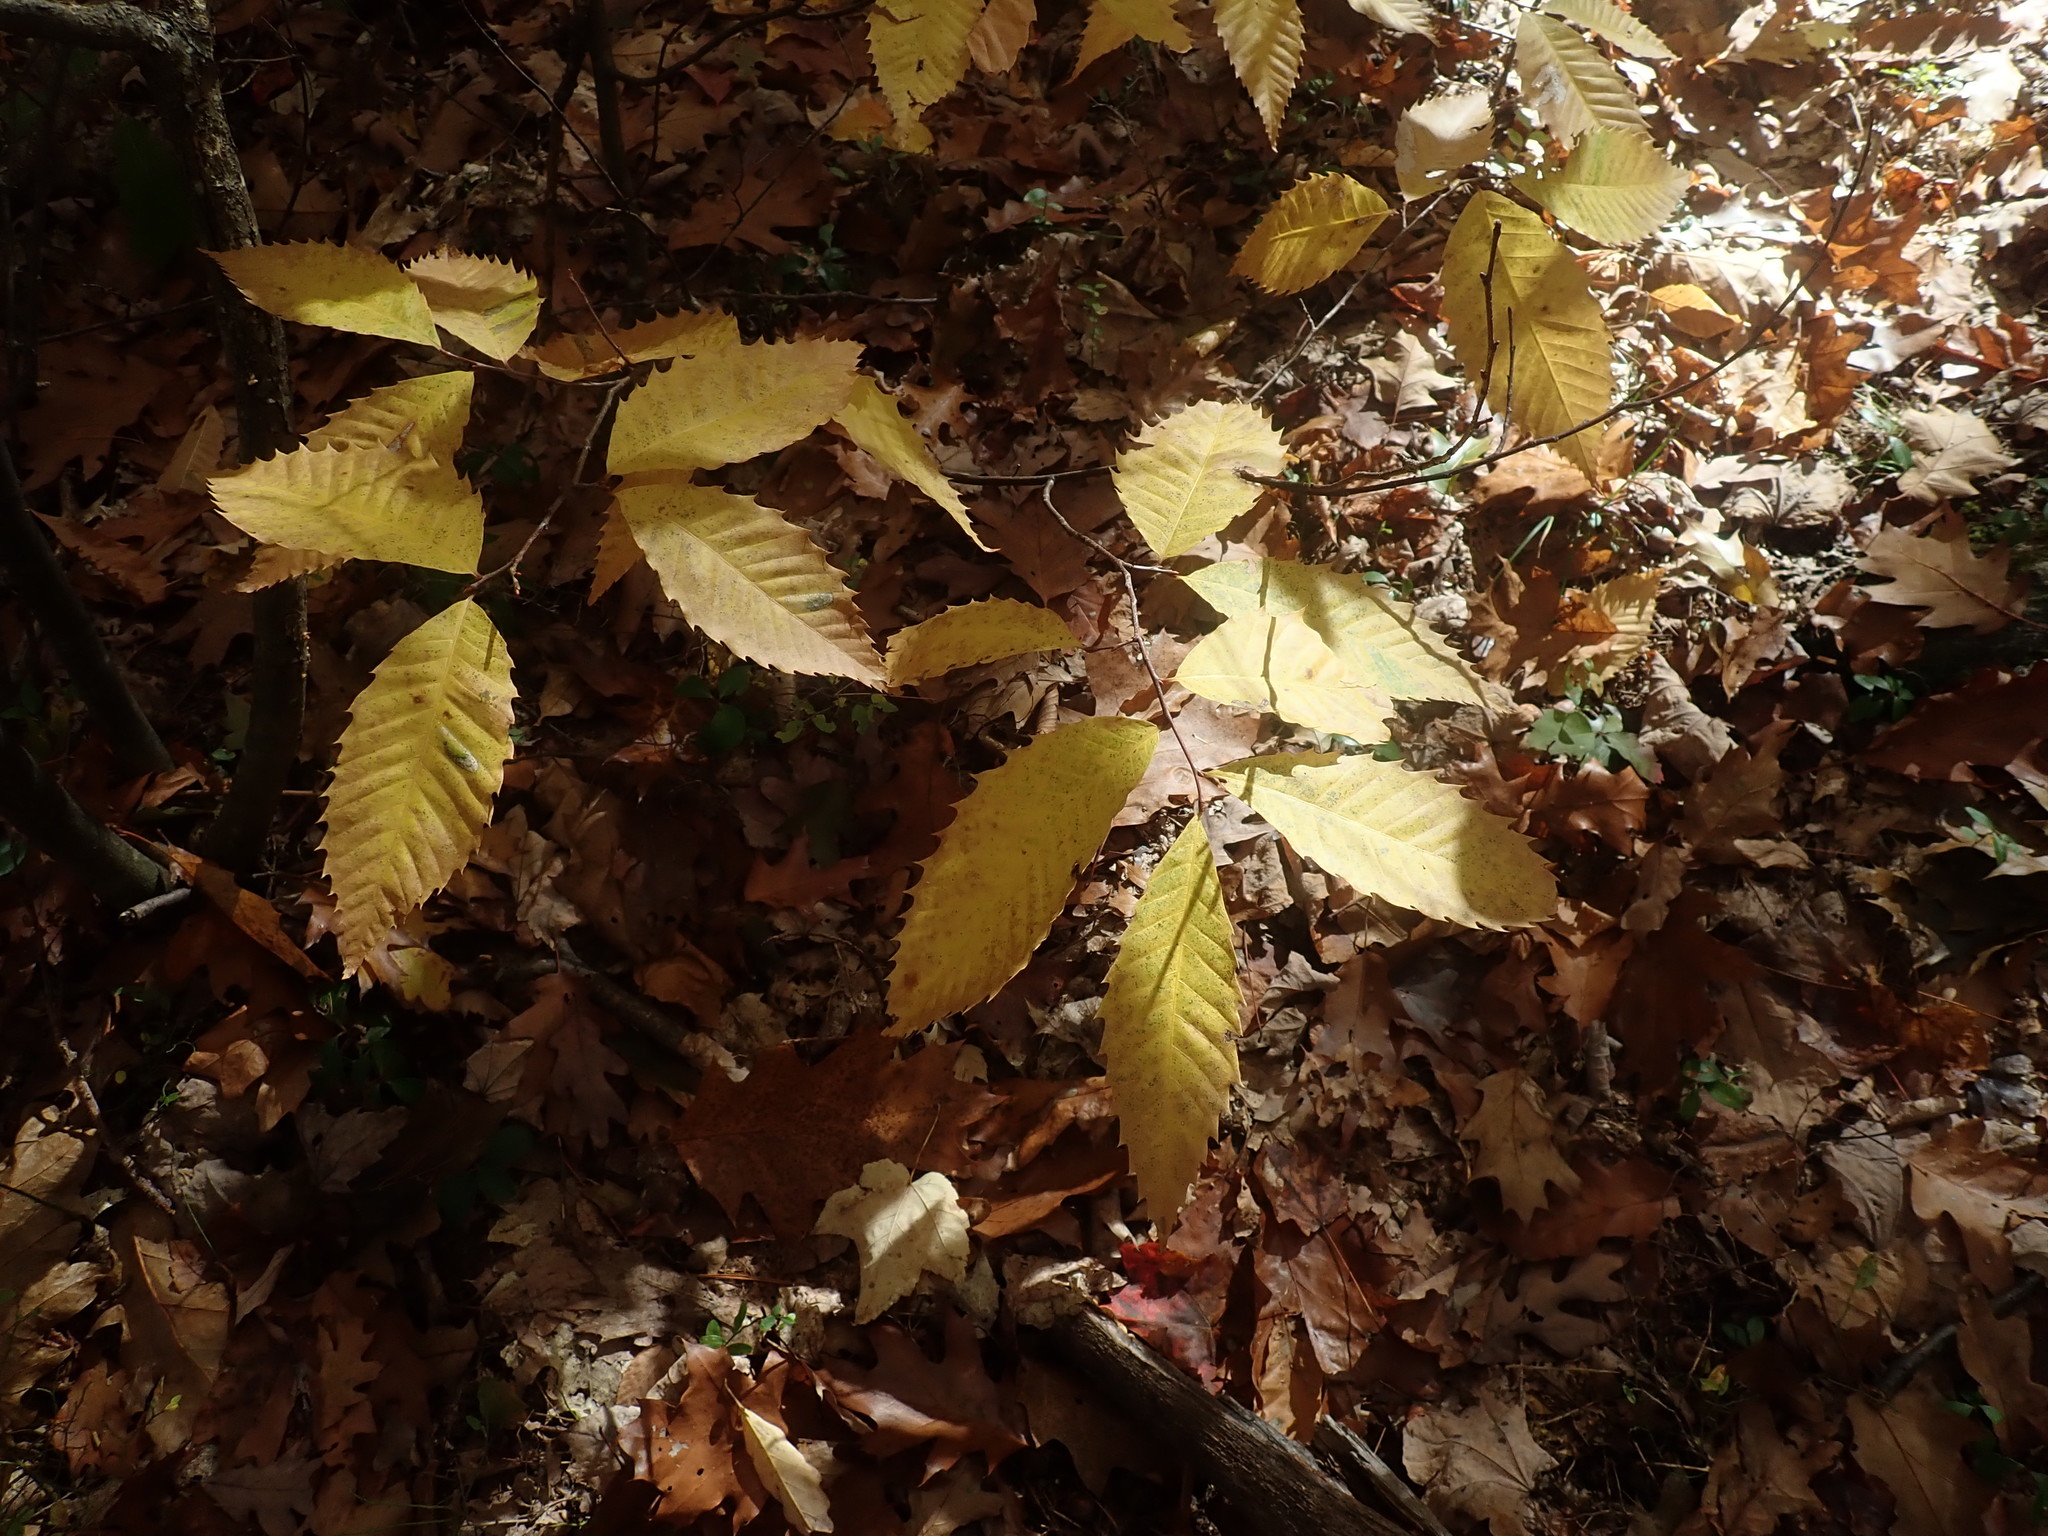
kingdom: Plantae
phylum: Tracheophyta
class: Magnoliopsida
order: Fagales
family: Fagaceae
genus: Castanea
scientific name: Castanea dentata
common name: American chestnut
